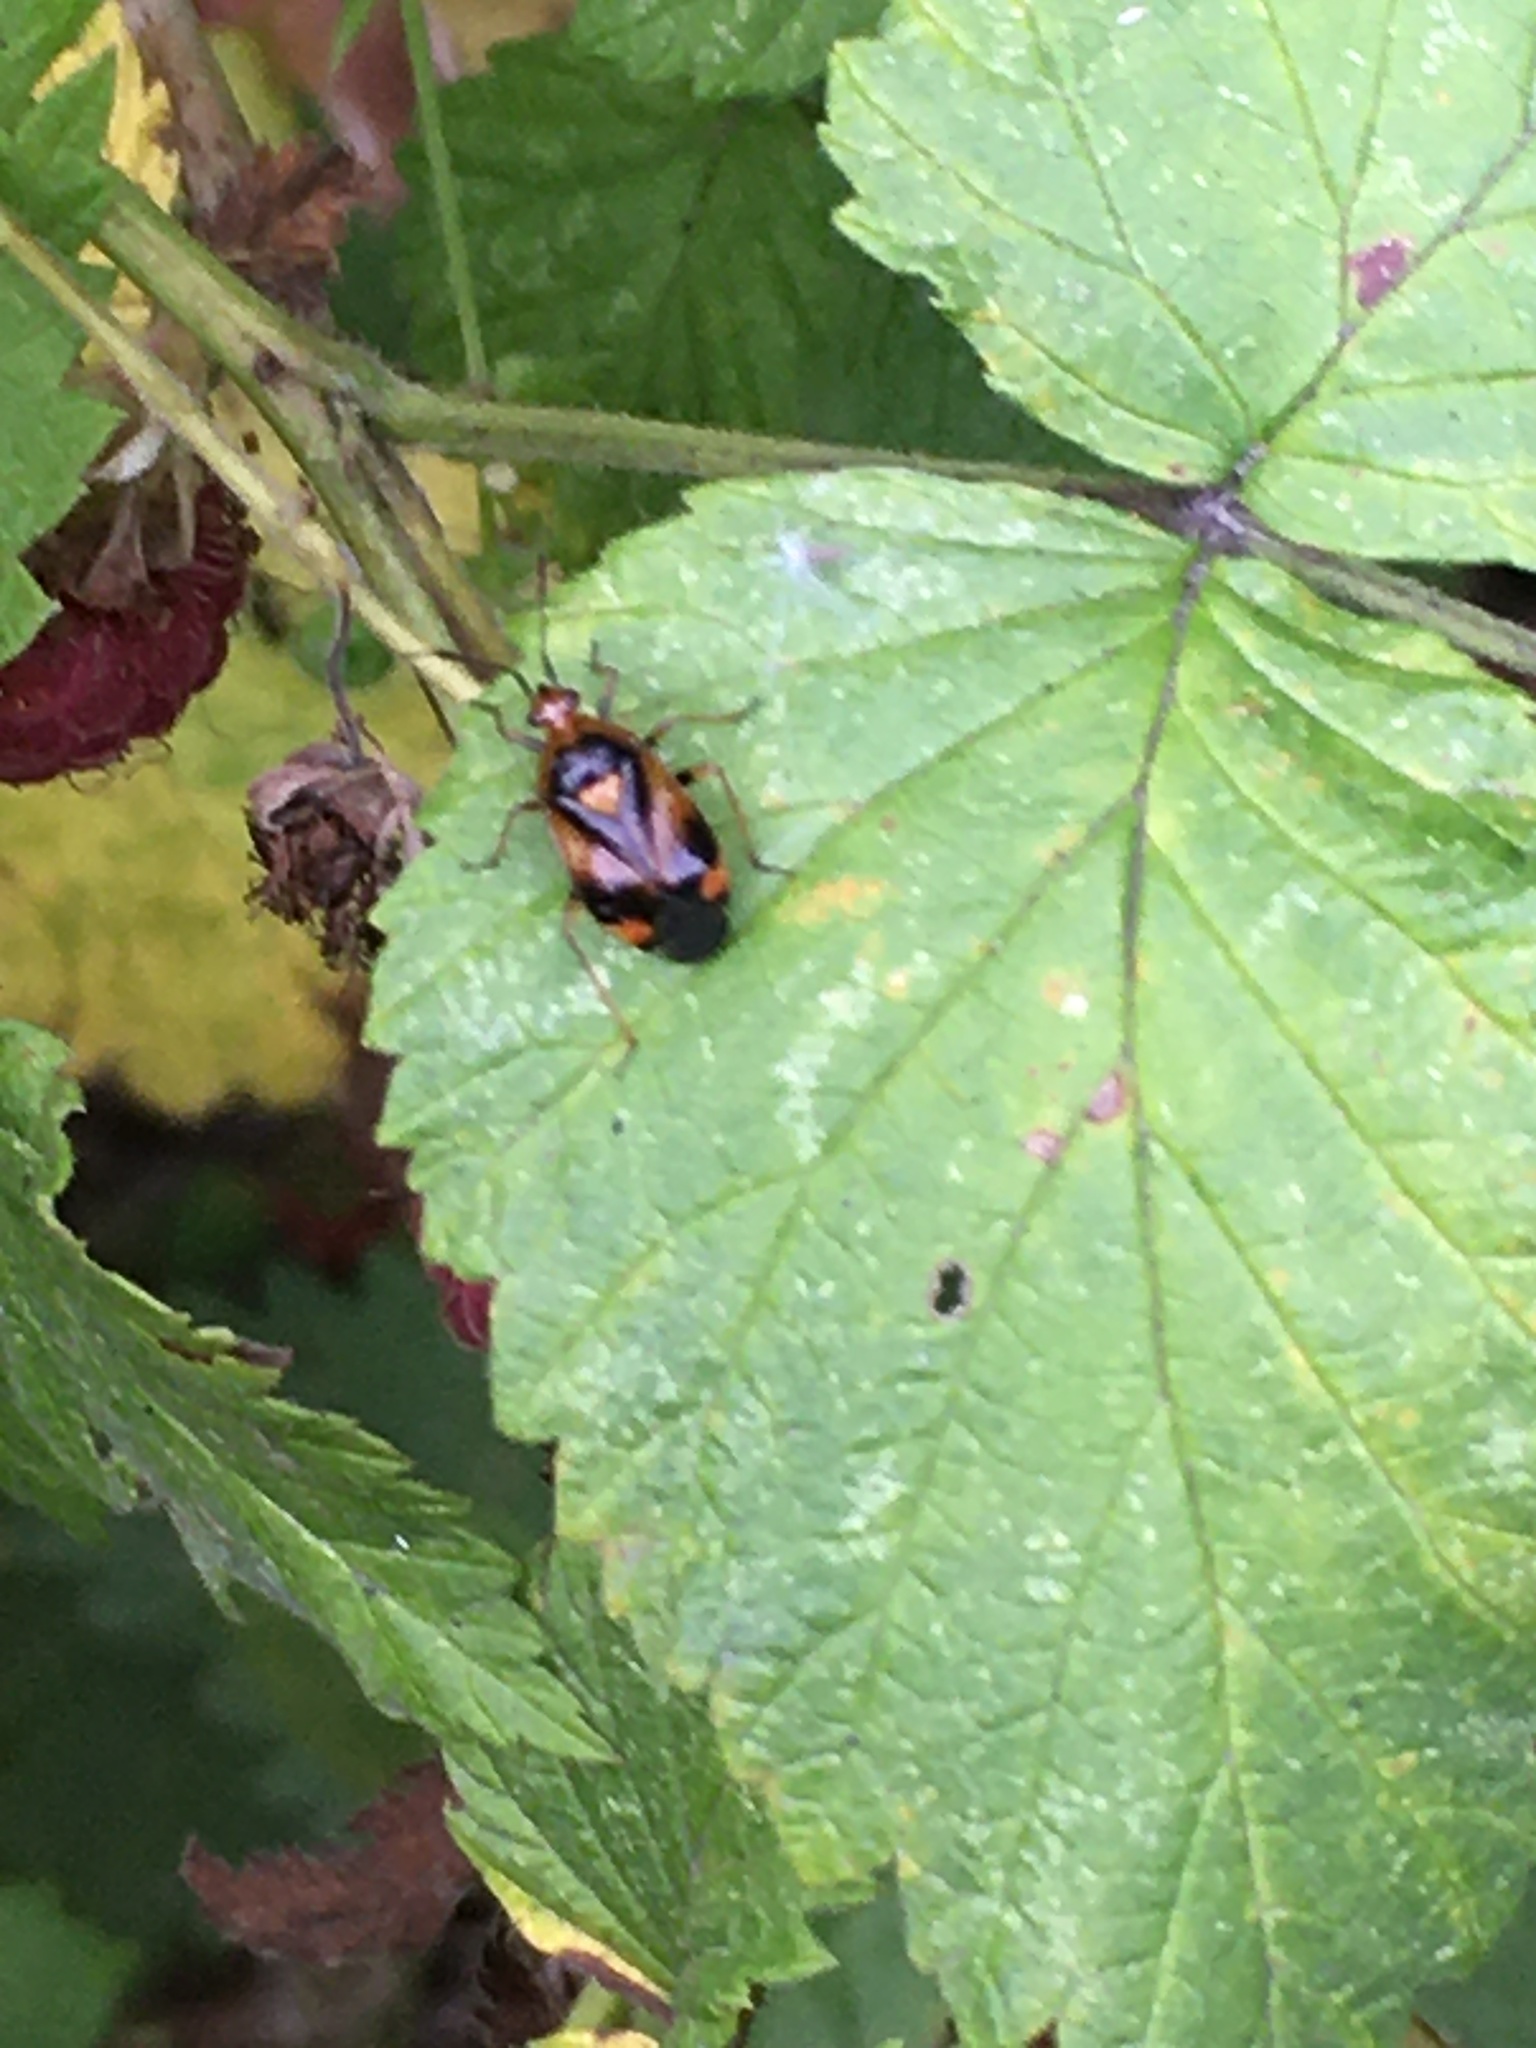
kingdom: Animalia
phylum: Arthropoda
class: Insecta
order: Hemiptera
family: Miridae
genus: Deraeocoris
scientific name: Deraeocoris ruber
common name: Plant bug
